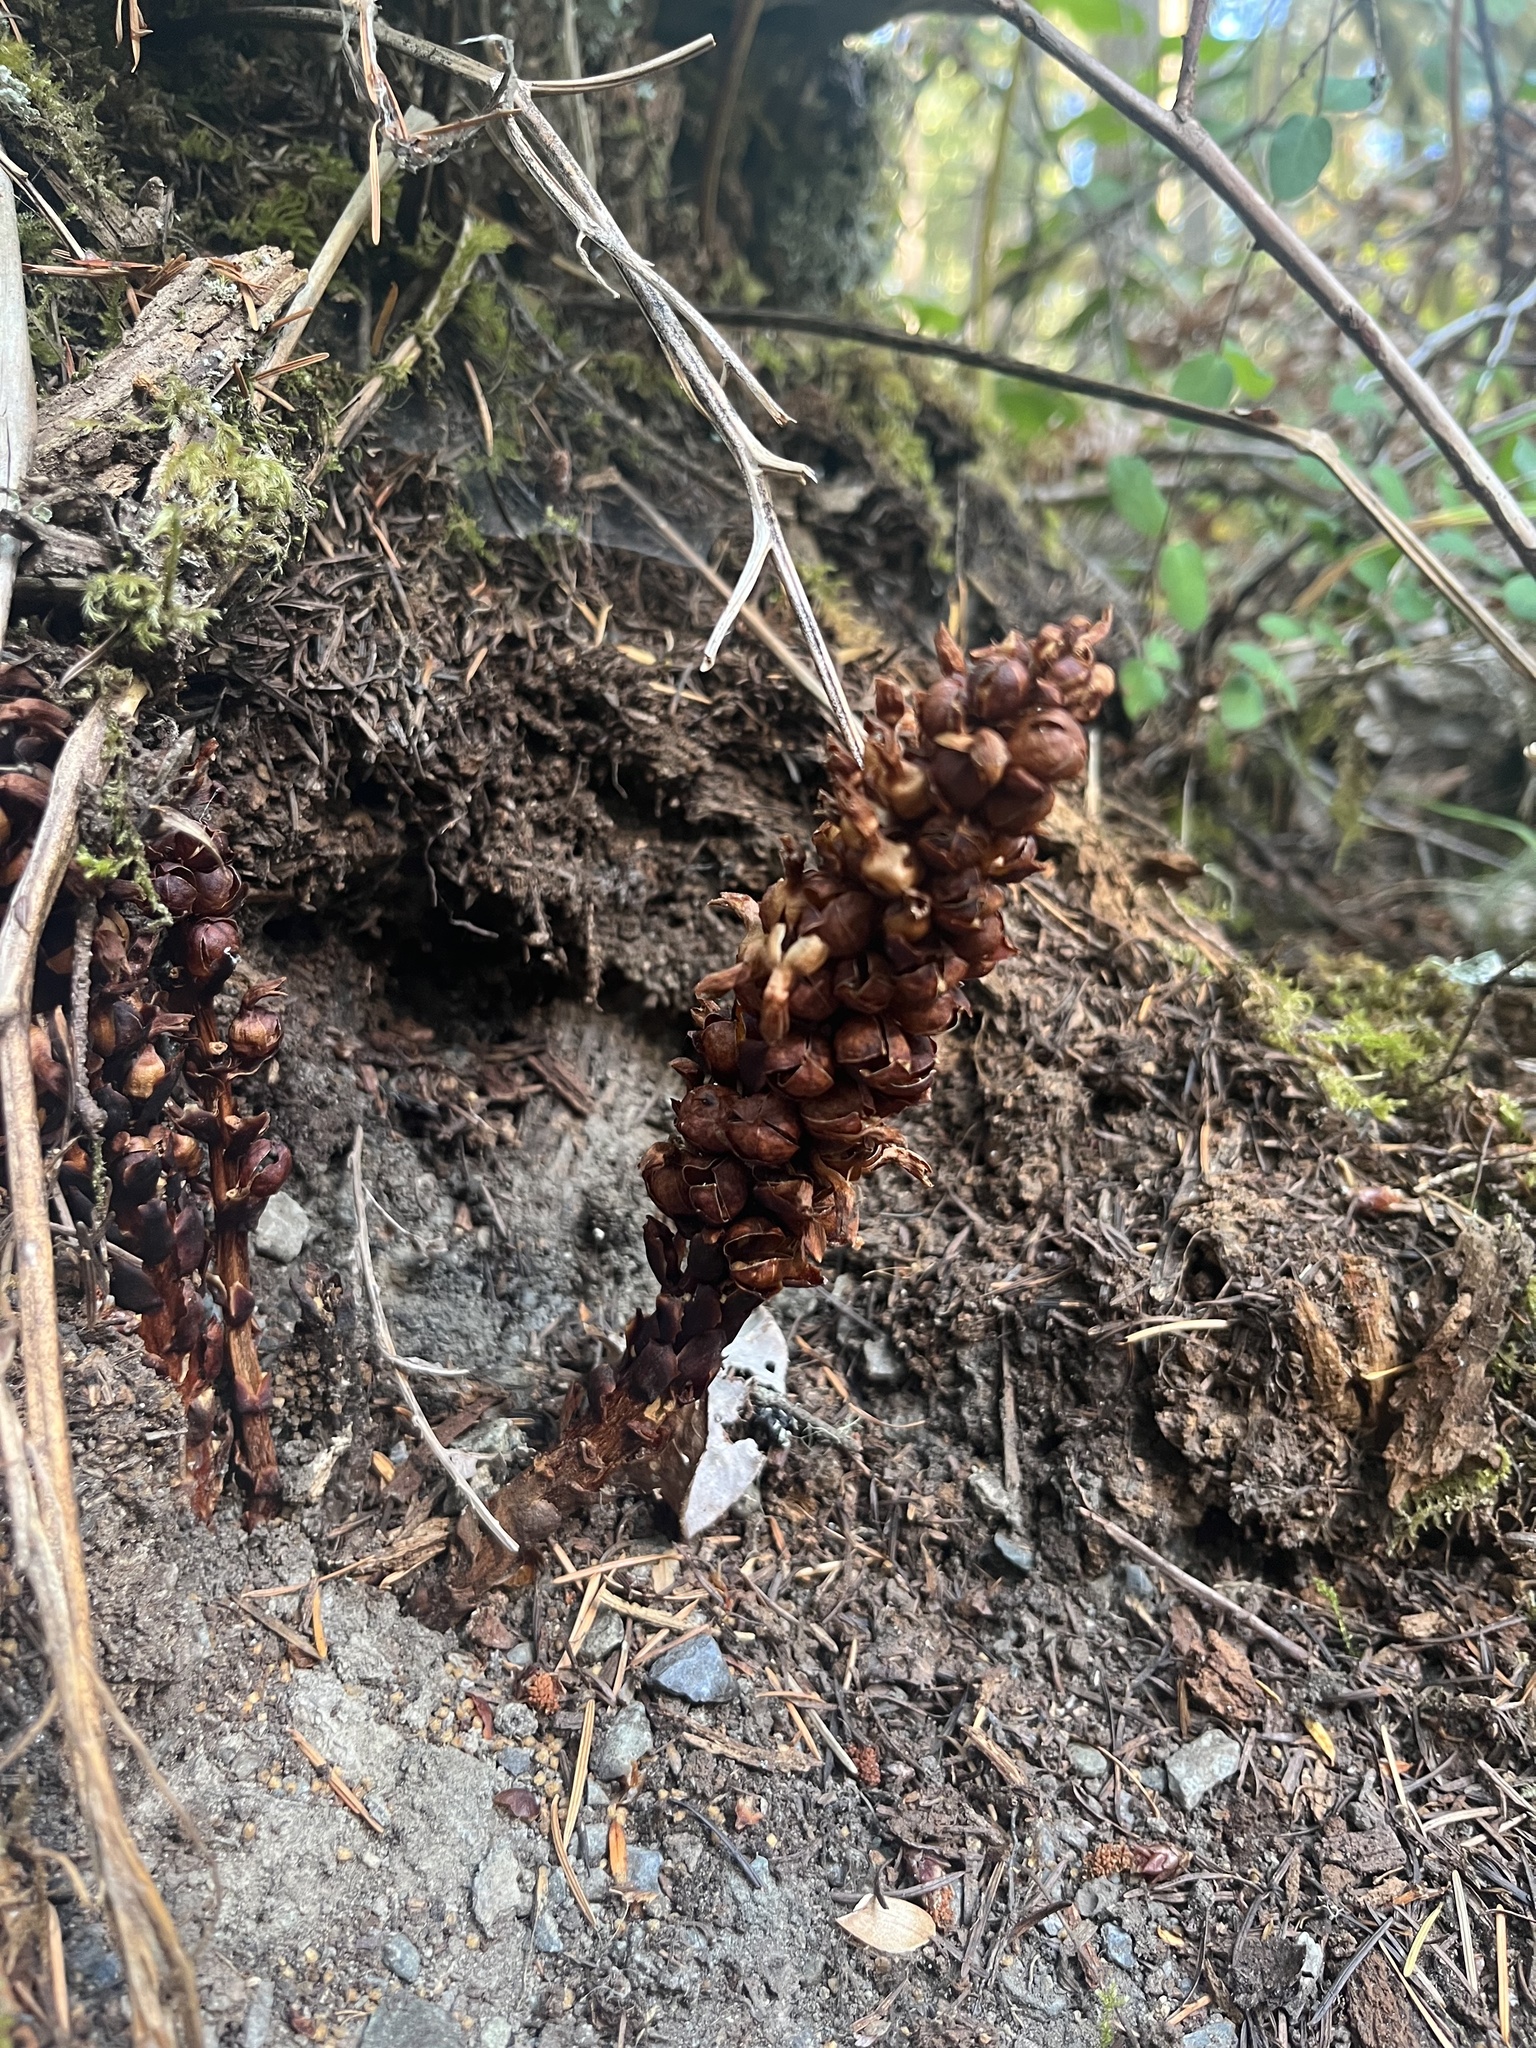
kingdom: Plantae
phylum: Tracheophyta
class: Magnoliopsida
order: Lamiales
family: Orobanchaceae
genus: Kopsiopsis
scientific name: Kopsiopsis hookeri
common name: Hooker's groundcone
